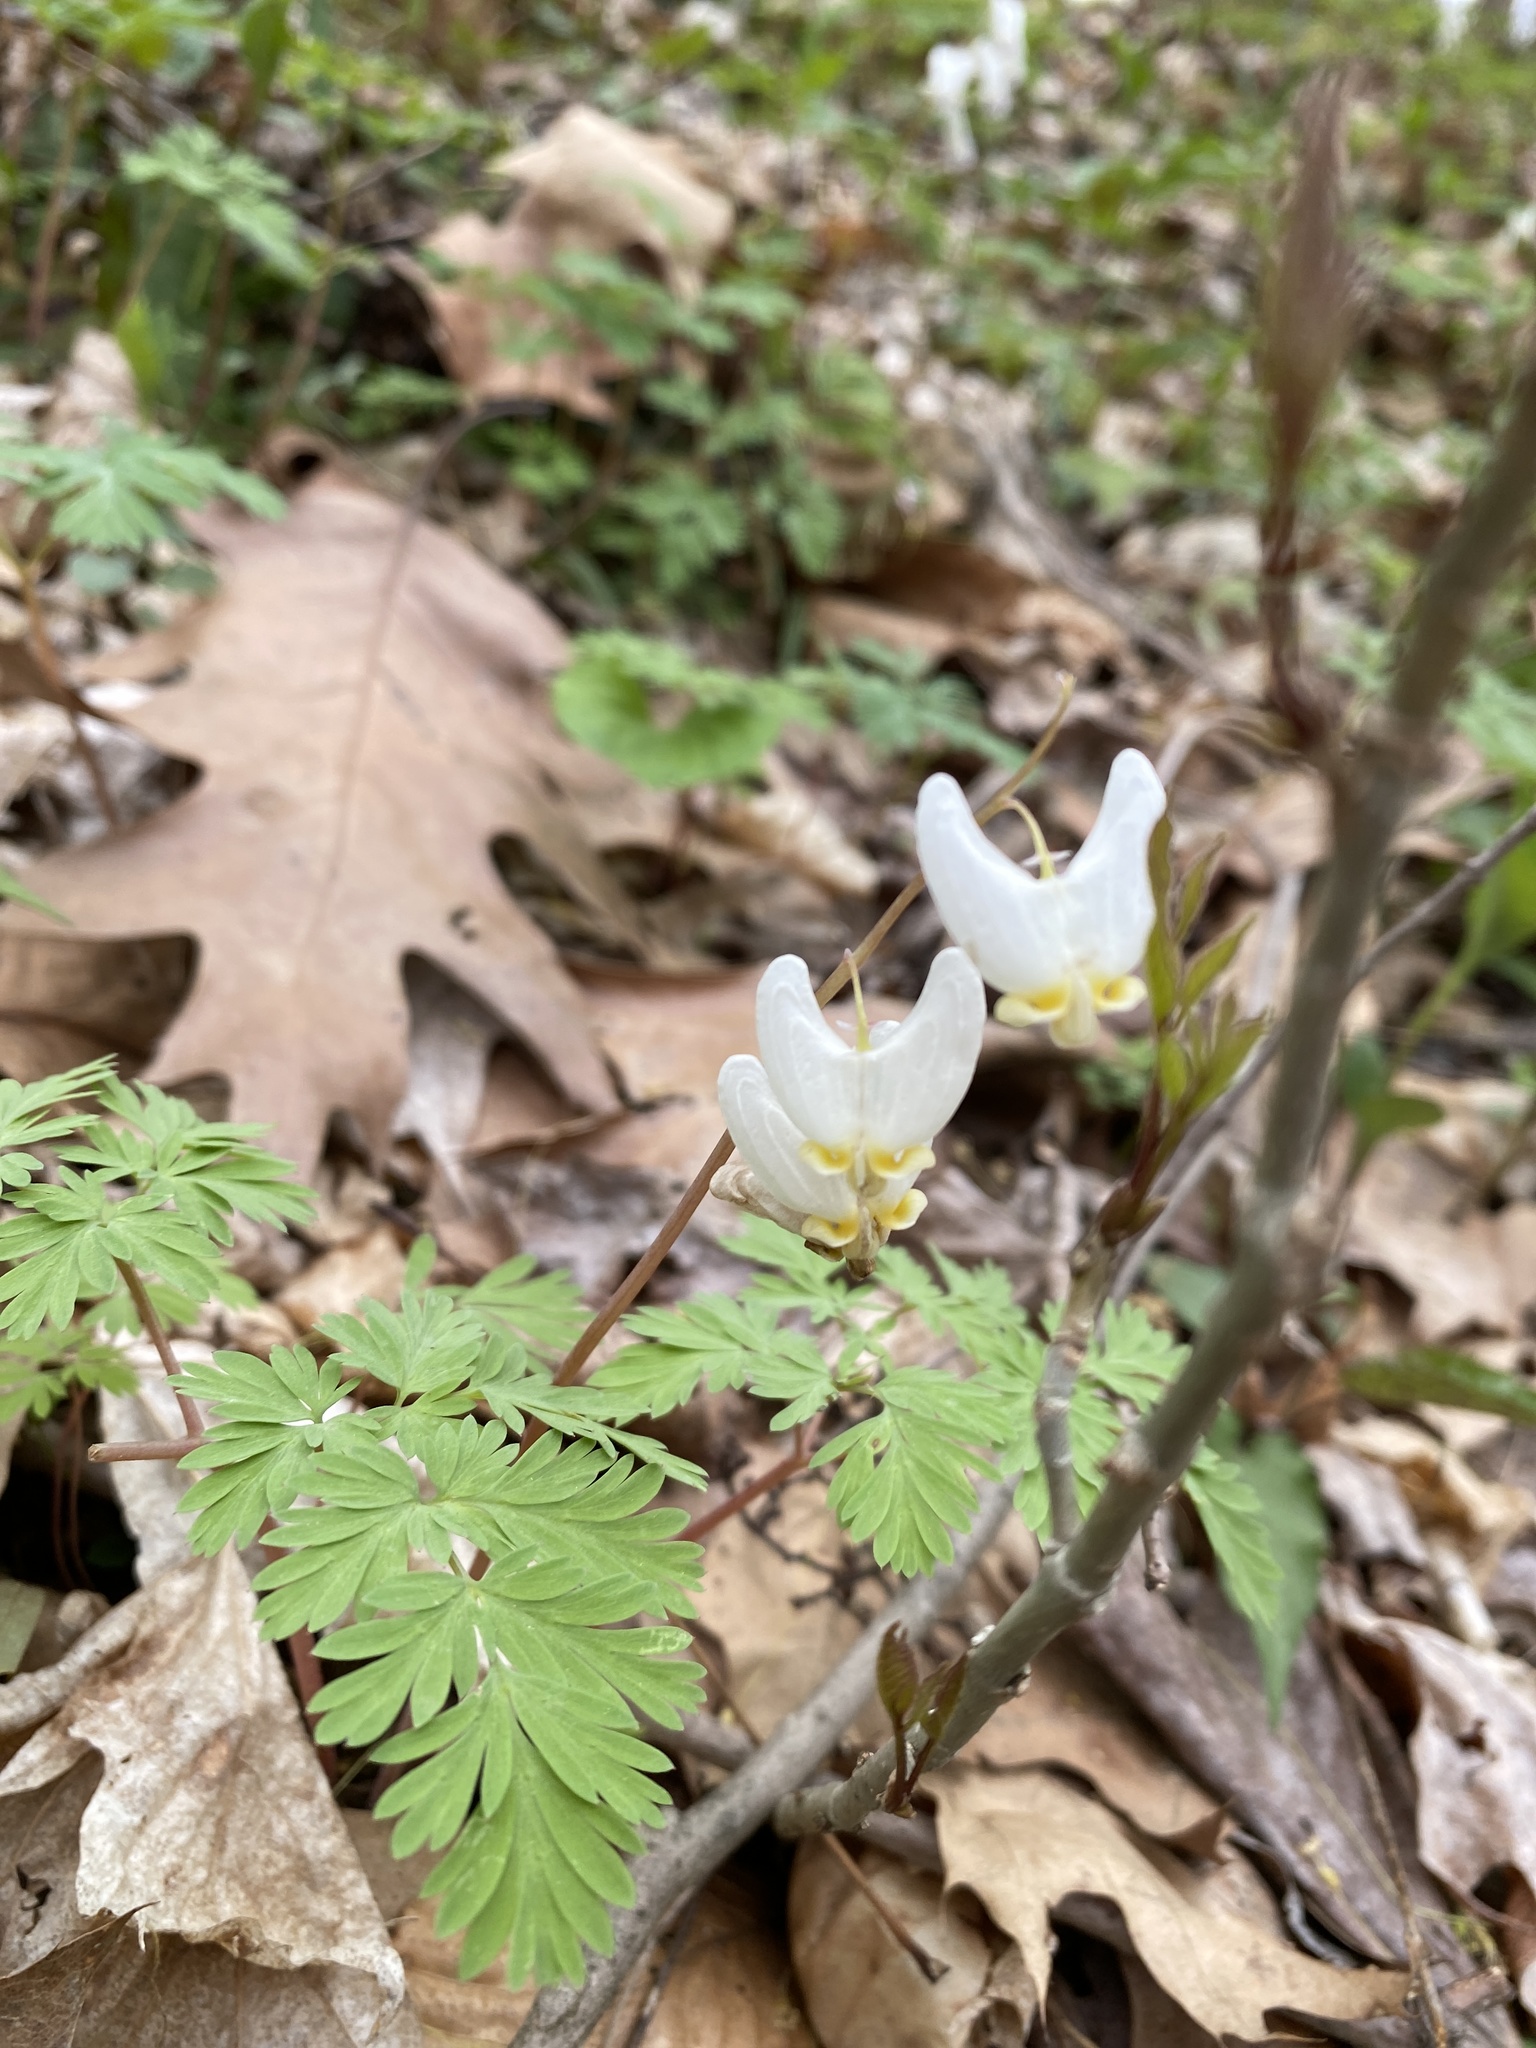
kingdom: Plantae
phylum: Tracheophyta
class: Magnoliopsida
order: Ranunculales
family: Papaveraceae
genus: Dicentra
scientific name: Dicentra cucullaria
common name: Dutchman's breeches
